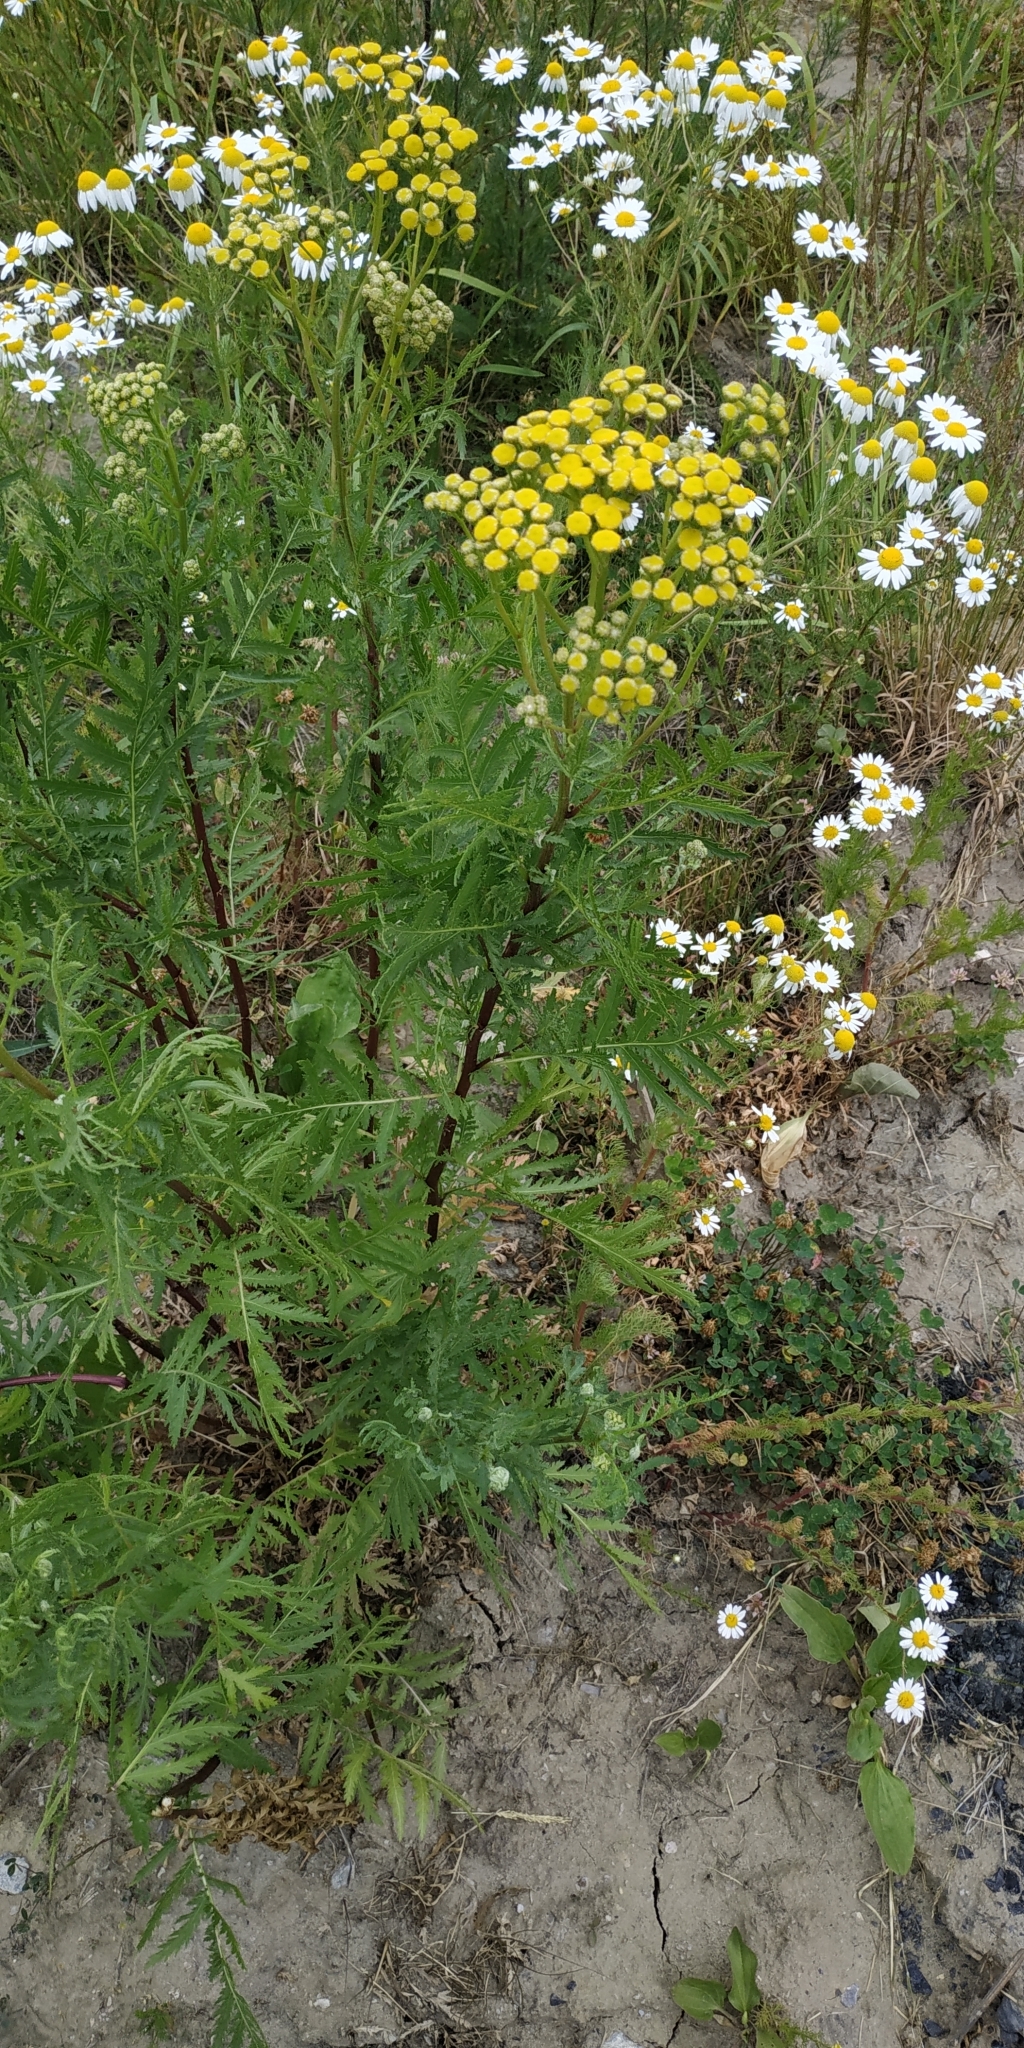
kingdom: Plantae
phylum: Tracheophyta
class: Magnoliopsida
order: Asterales
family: Asteraceae
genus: Tanacetum
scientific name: Tanacetum vulgare
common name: Common tansy
